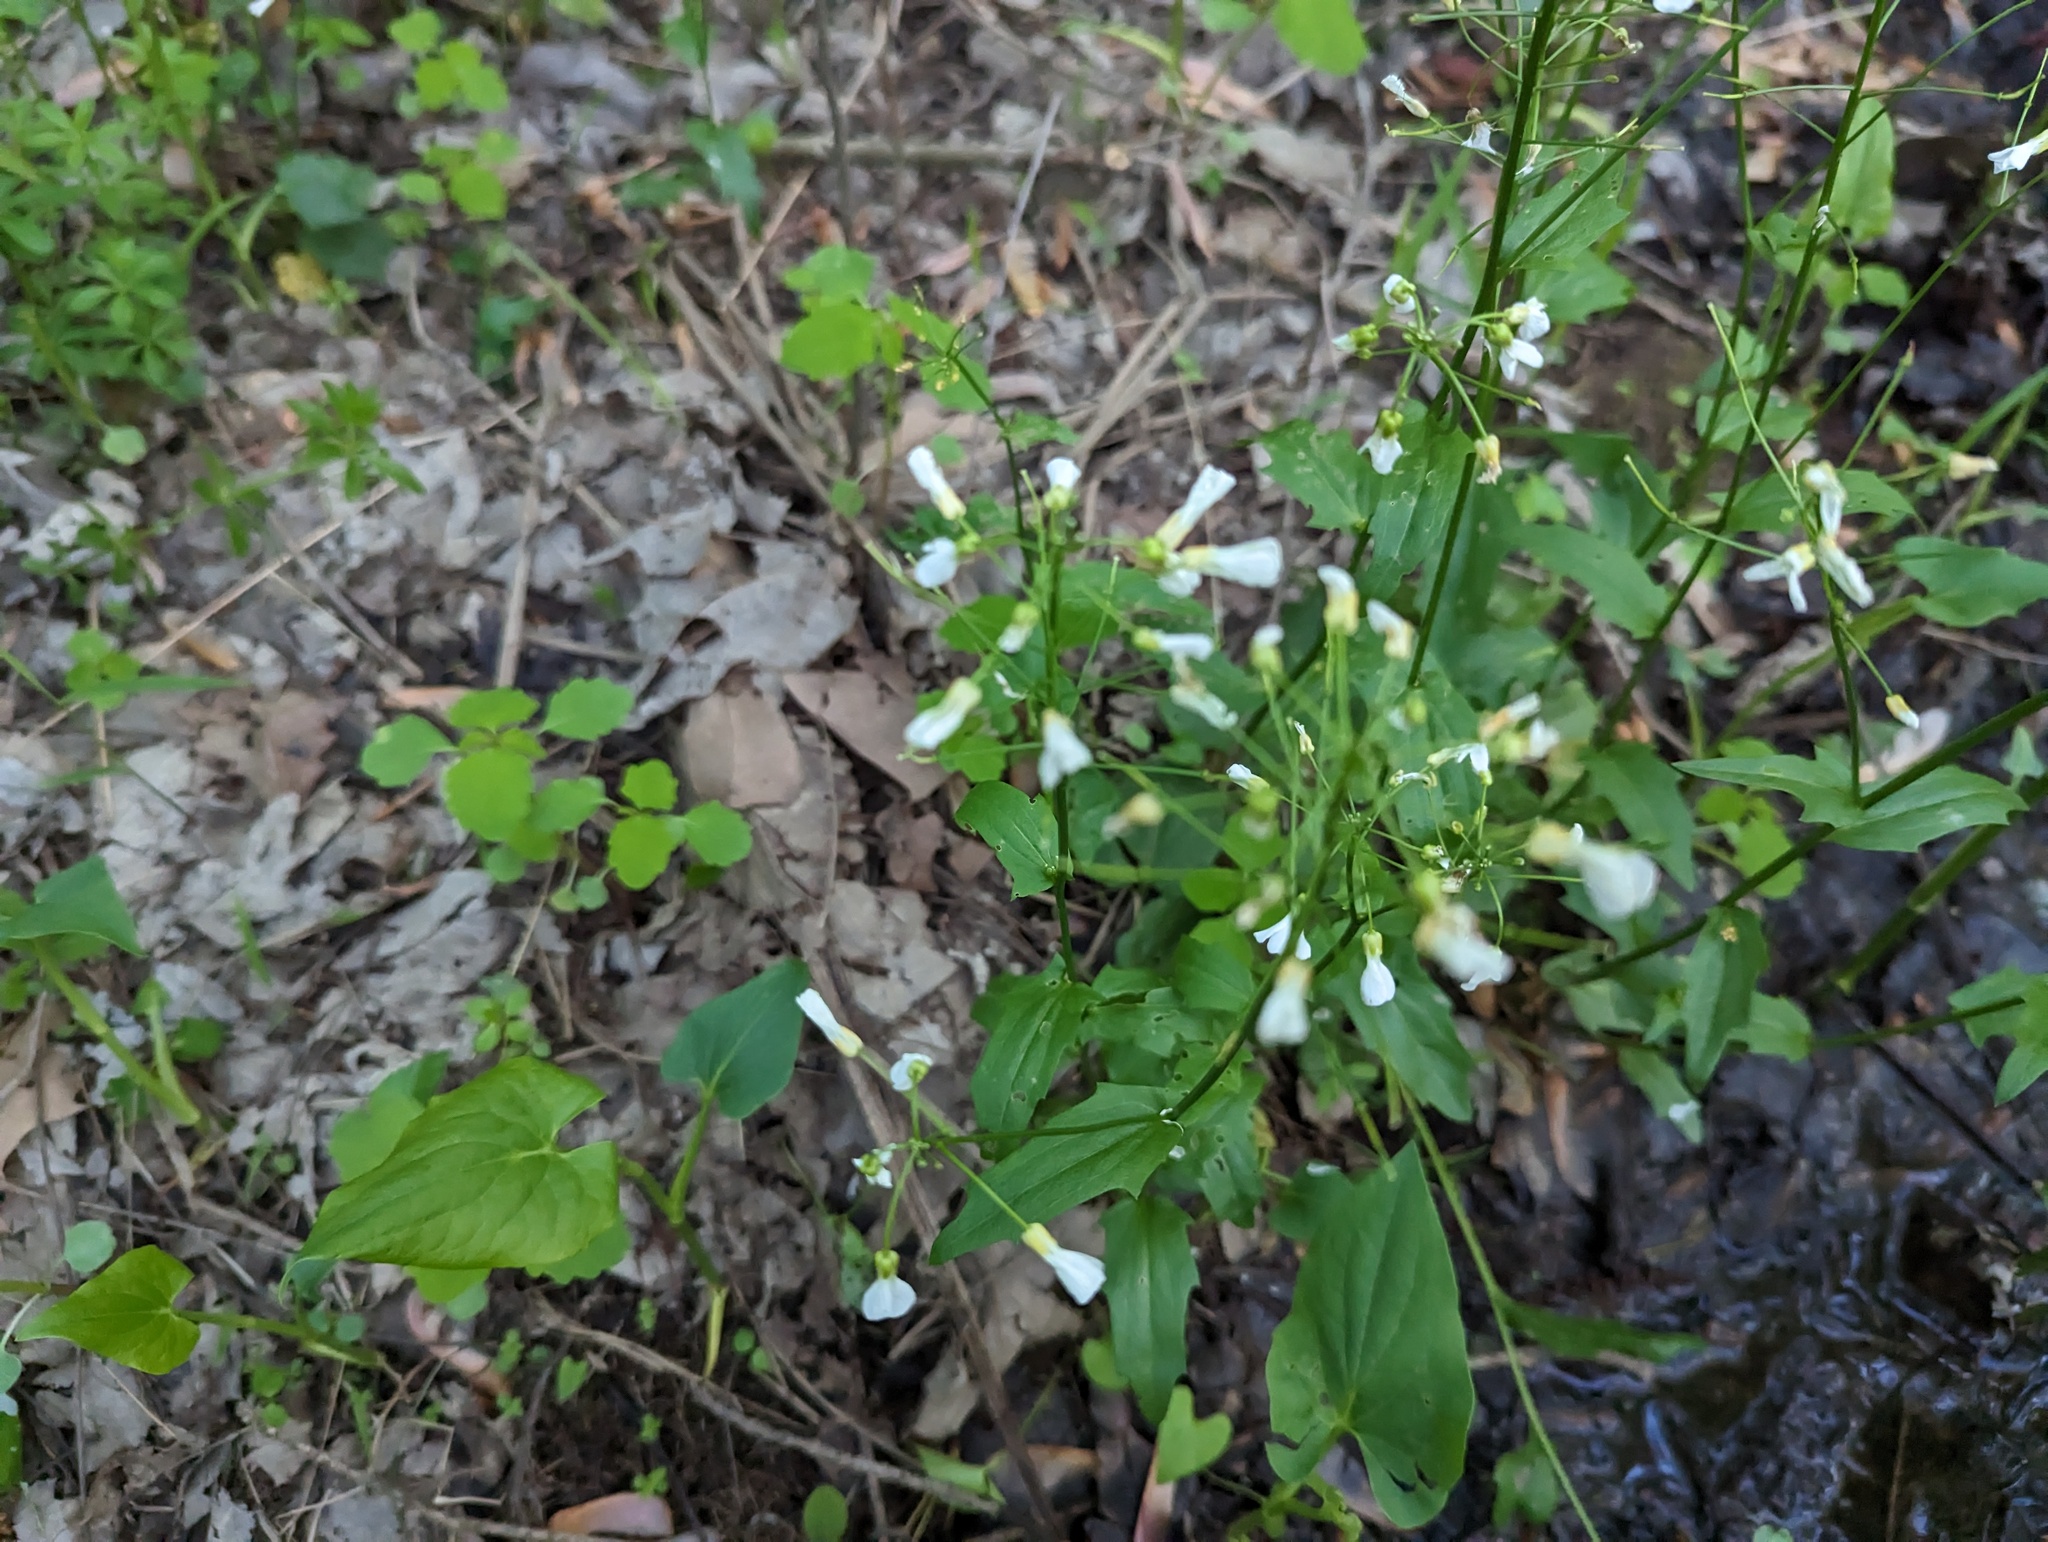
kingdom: Plantae
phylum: Tracheophyta
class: Magnoliopsida
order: Brassicales
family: Brassicaceae
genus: Cardamine
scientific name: Cardamine bulbosa
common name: Spring cress
